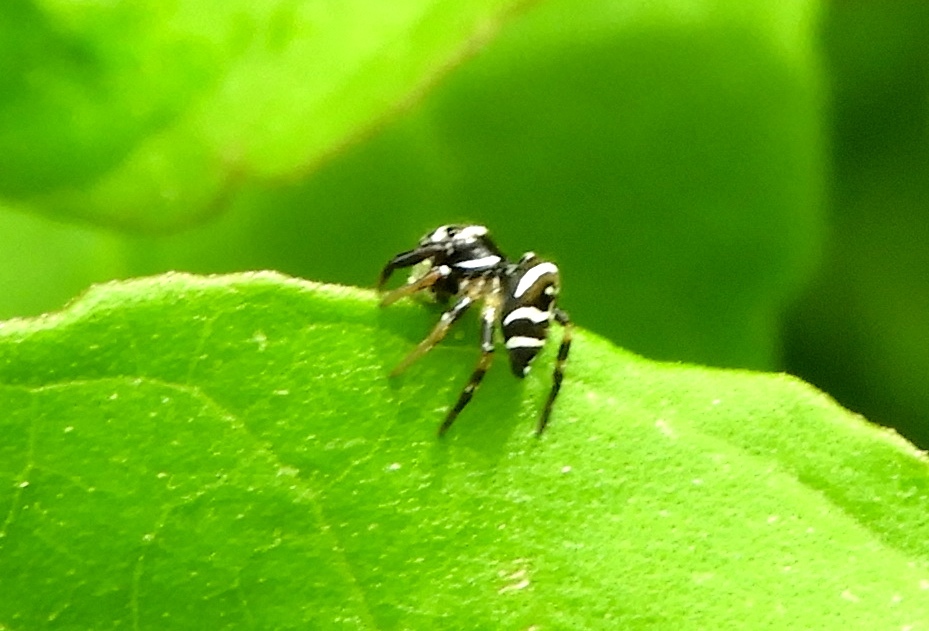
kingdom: Animalia
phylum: Arthropoda
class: Arachnida
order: Araneae
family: Salticidae
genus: Sassacus
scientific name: Sassacus
